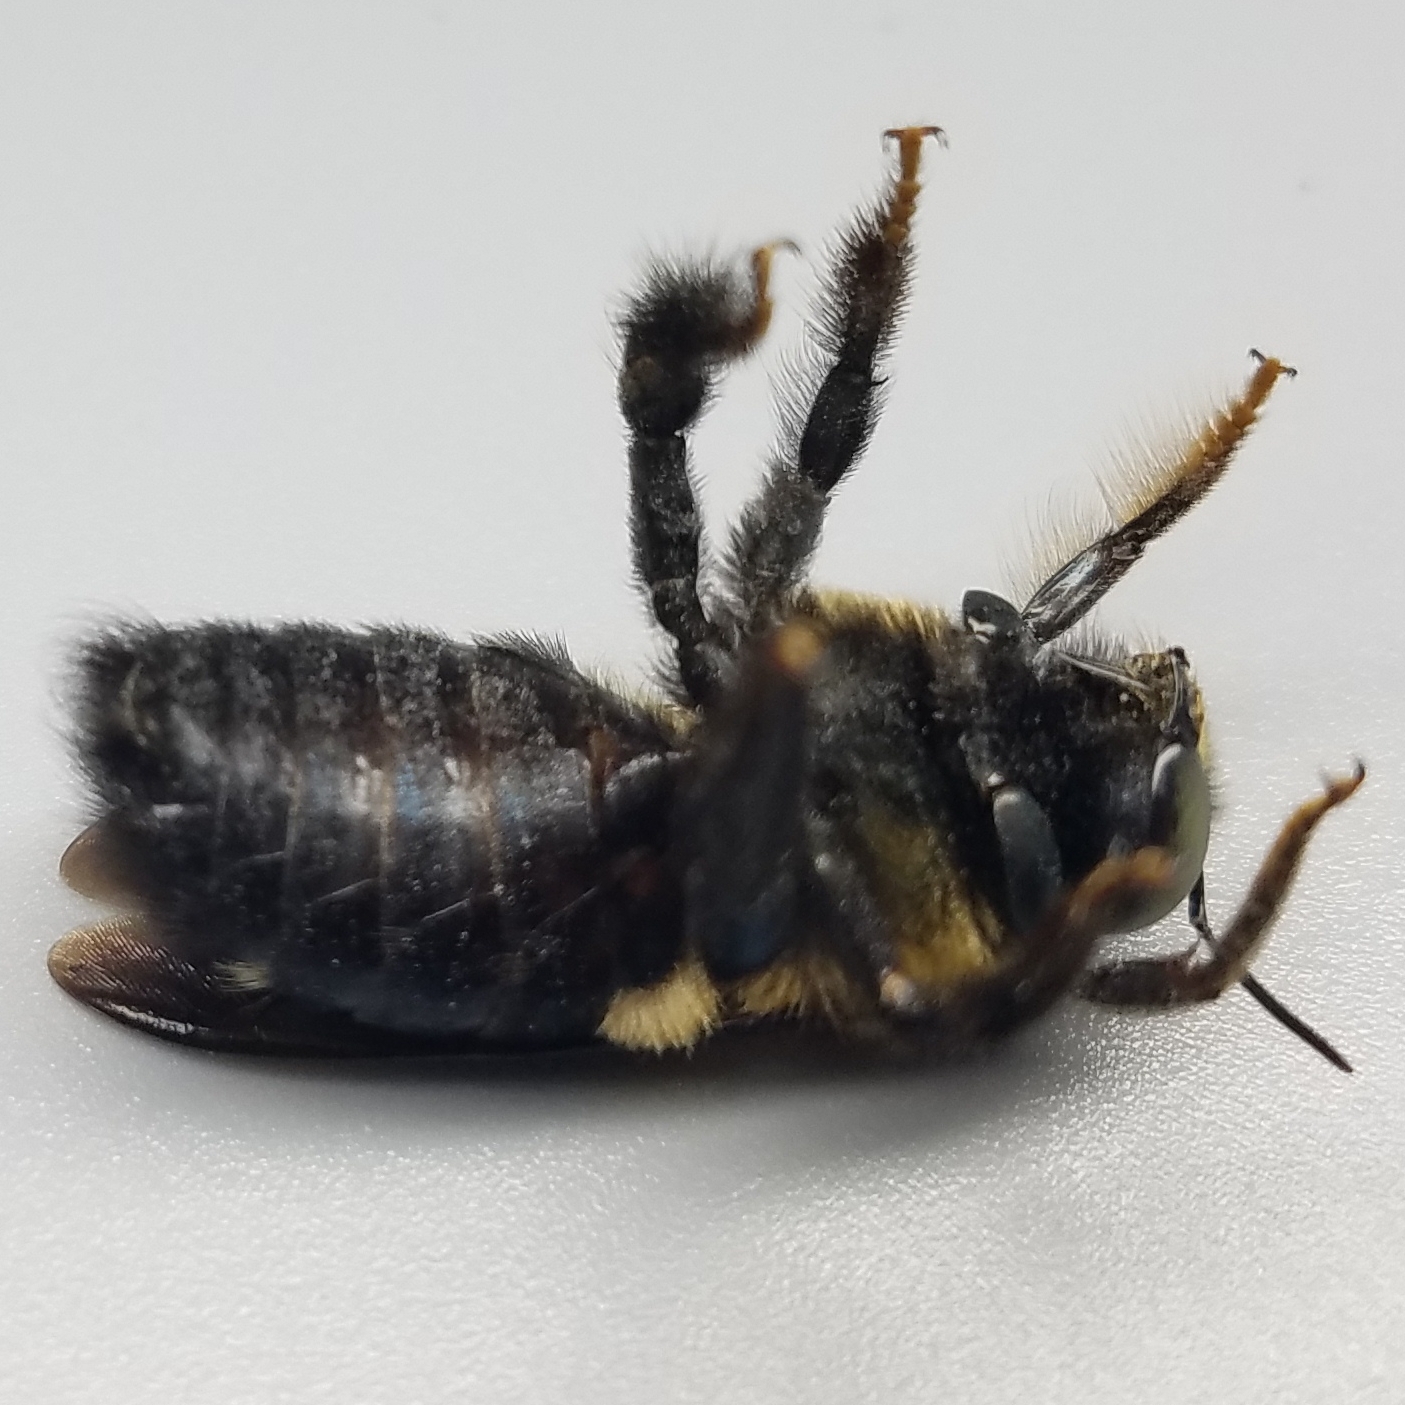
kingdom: Animalia
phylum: Arthropoda
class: Insecta
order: Hymenoptera
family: Apidae
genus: Xylocopa
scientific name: Xylocopa virginica
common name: Carpenter bee
